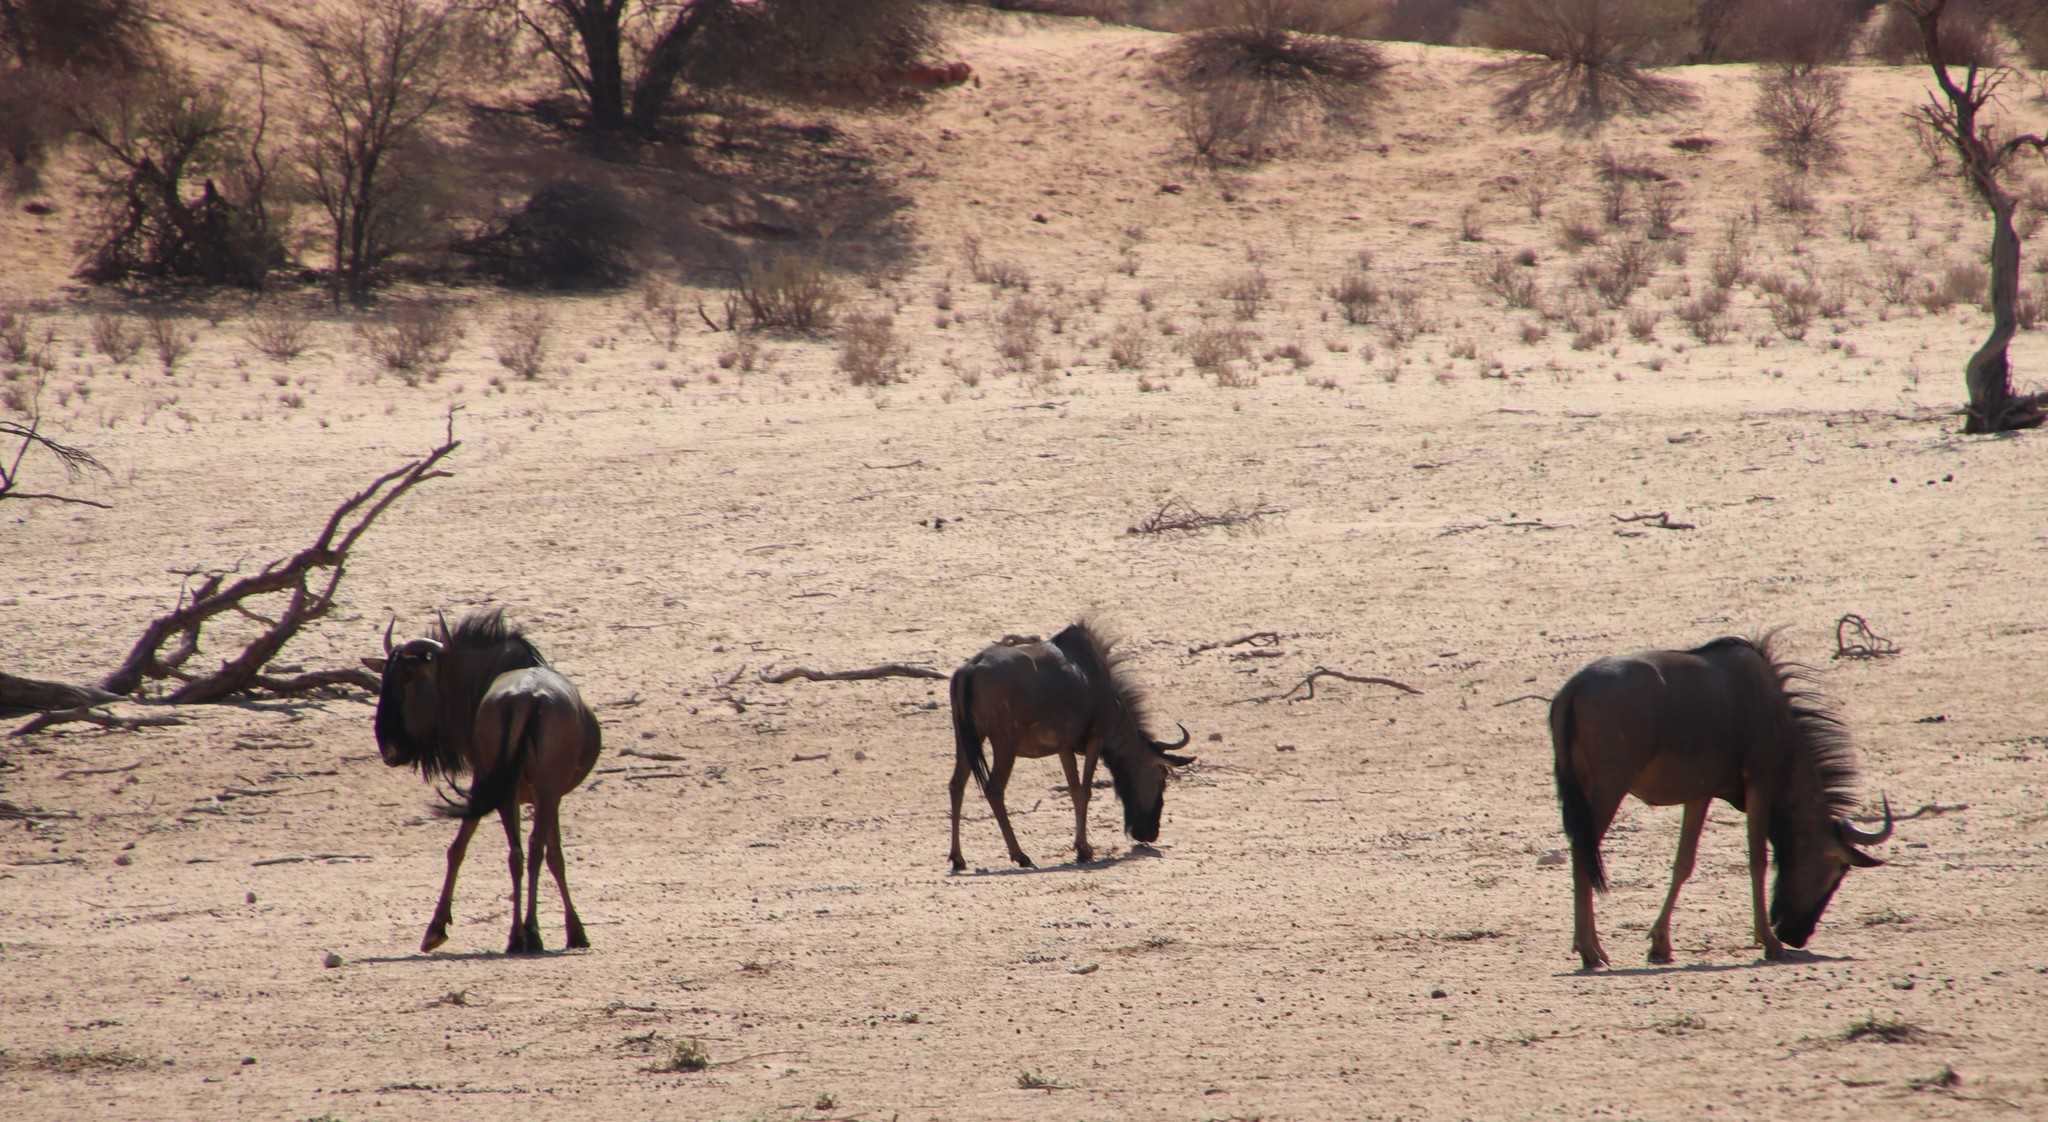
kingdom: Animalia
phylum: Chordata
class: Mammalia
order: Artiodactyla
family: Bovidae
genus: Connochaetes
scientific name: Connochaetes taurinus
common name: Blue wildebeest
